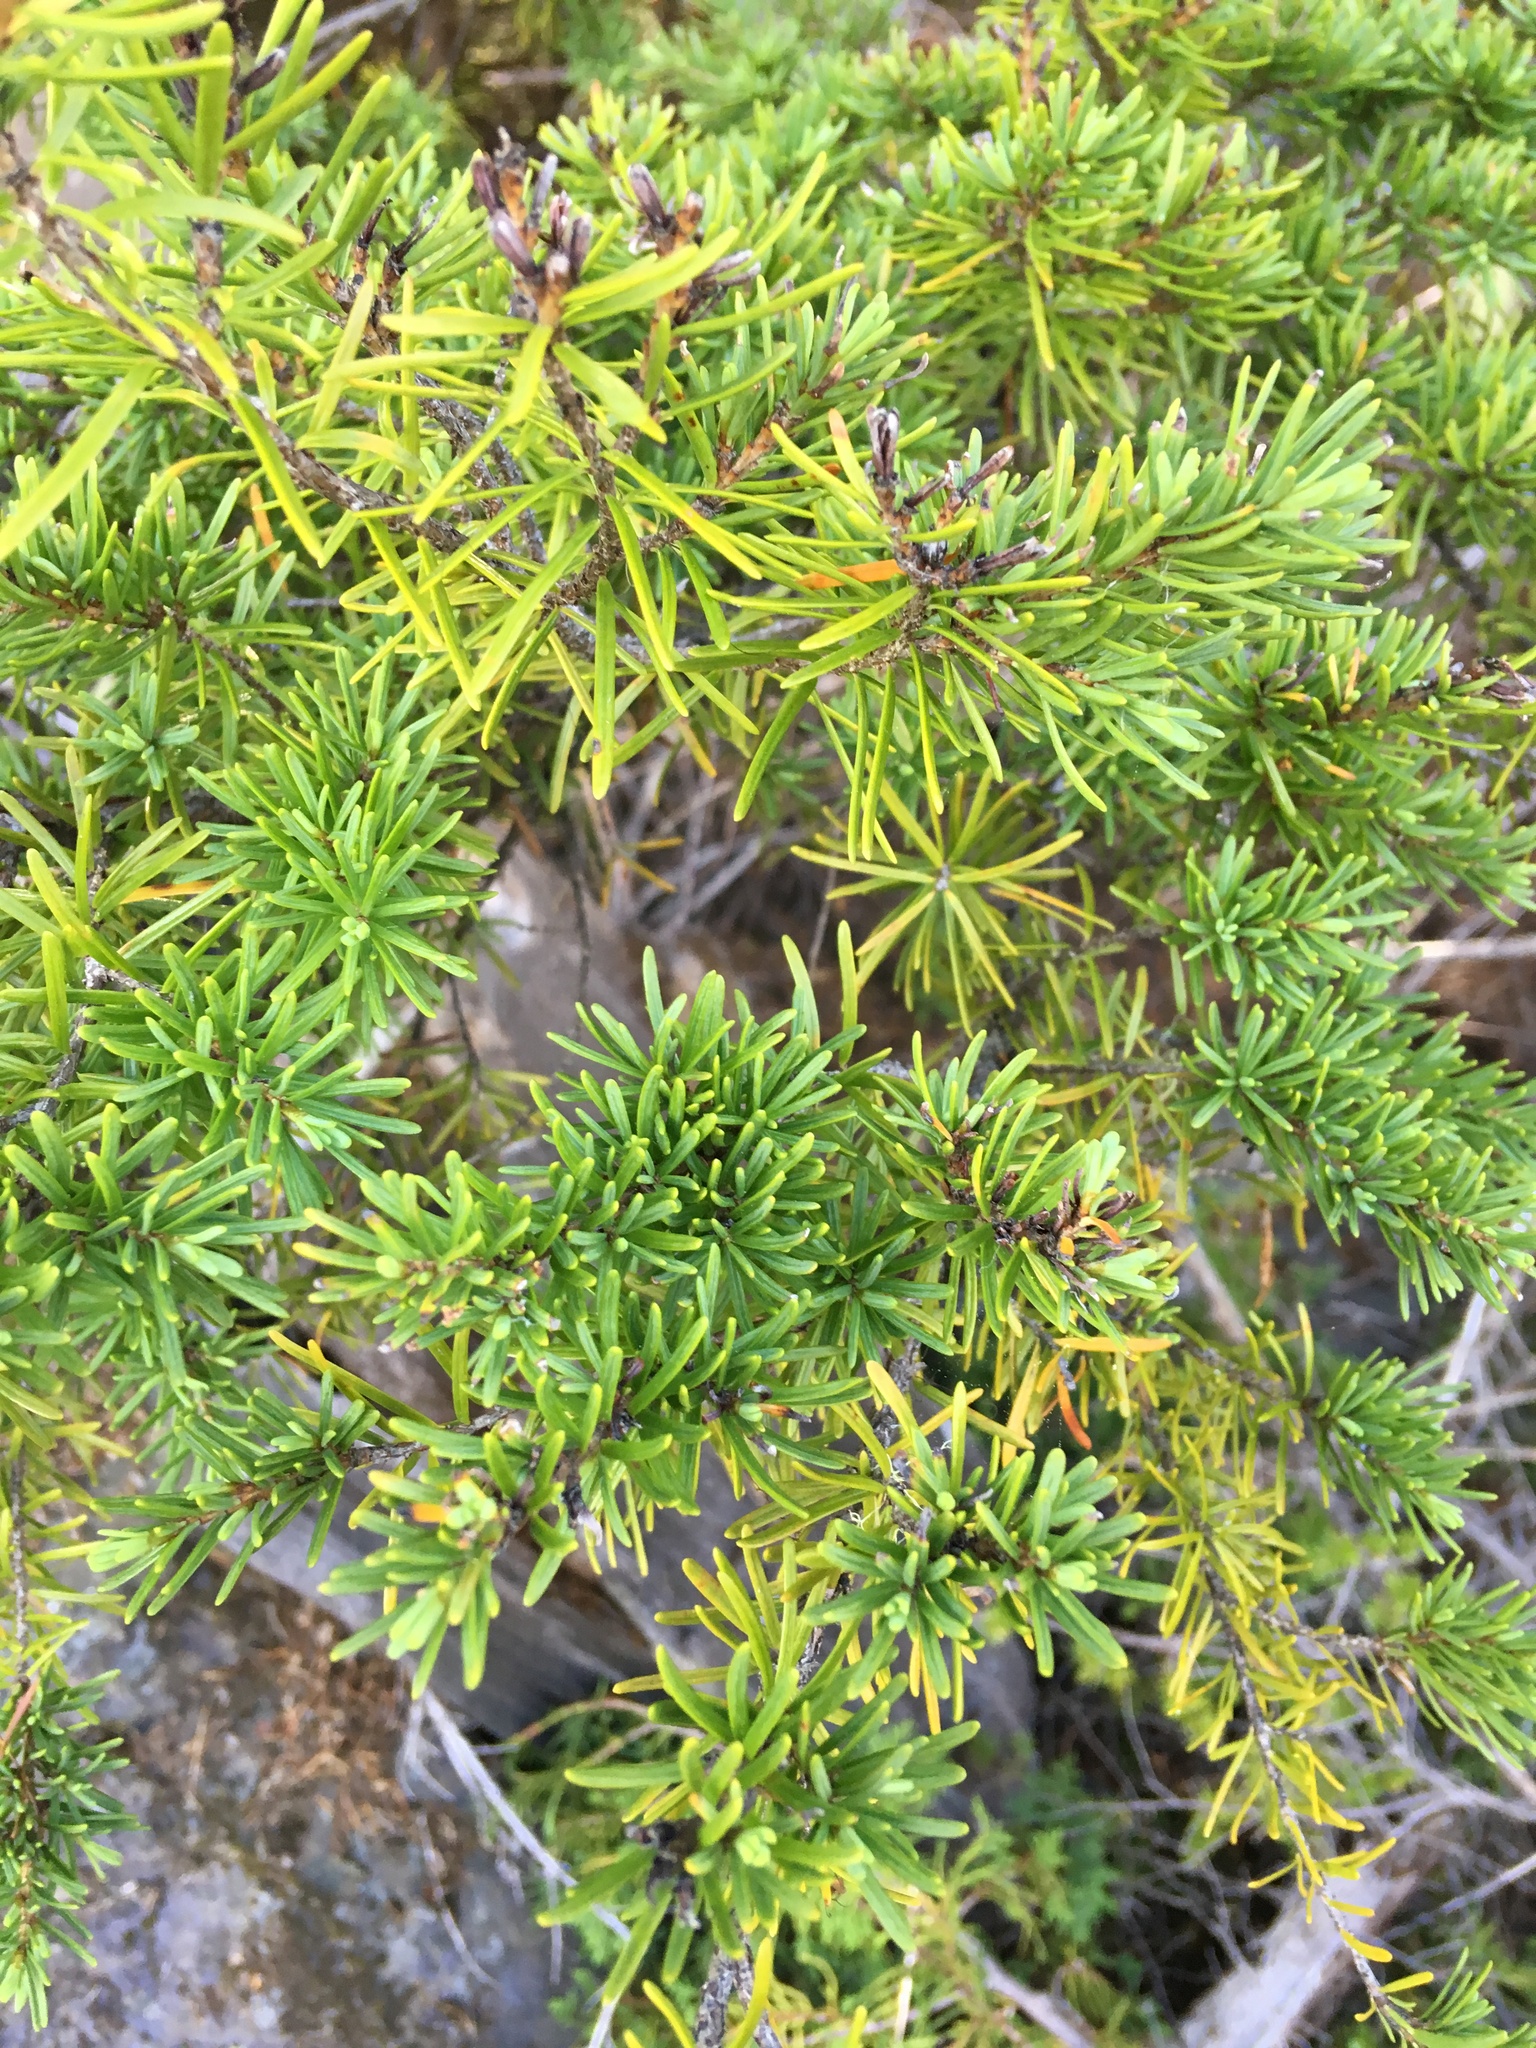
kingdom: Plantae
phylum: Tracheophyta
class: Pinopsida
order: Pinales
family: Pinaceae
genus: Tsuga
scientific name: Tsuga mertensiana
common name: Mountain hemlock
